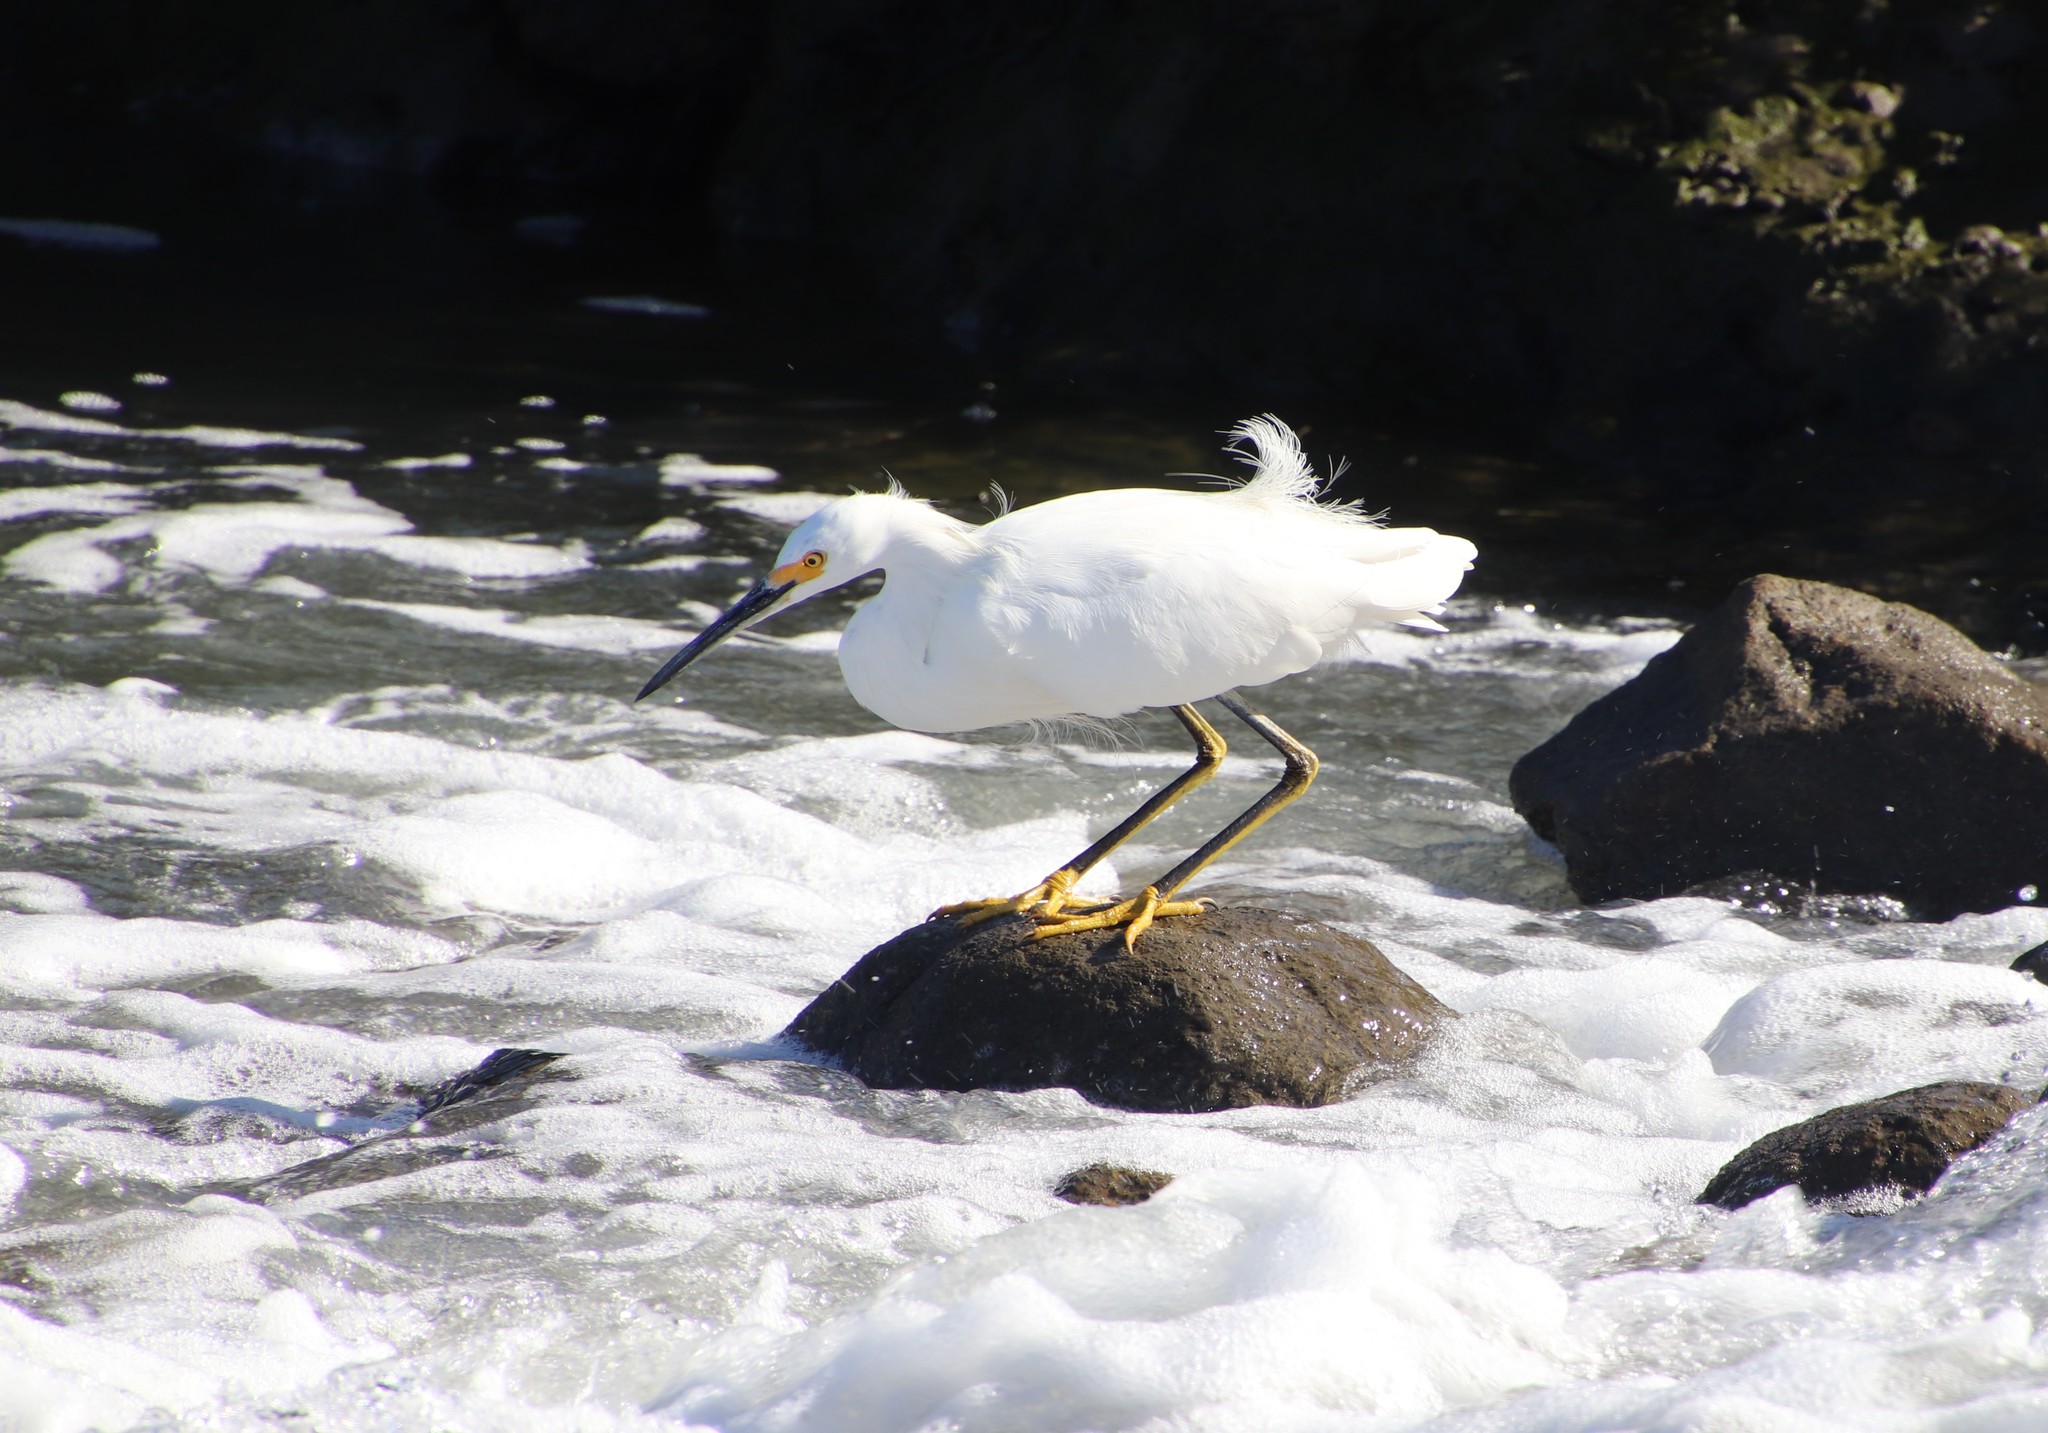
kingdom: Animalia
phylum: Chordata
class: Aves
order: Pelecaniformes
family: Ardeidae
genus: Egretta
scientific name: Egretta thula
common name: Snowy egret
